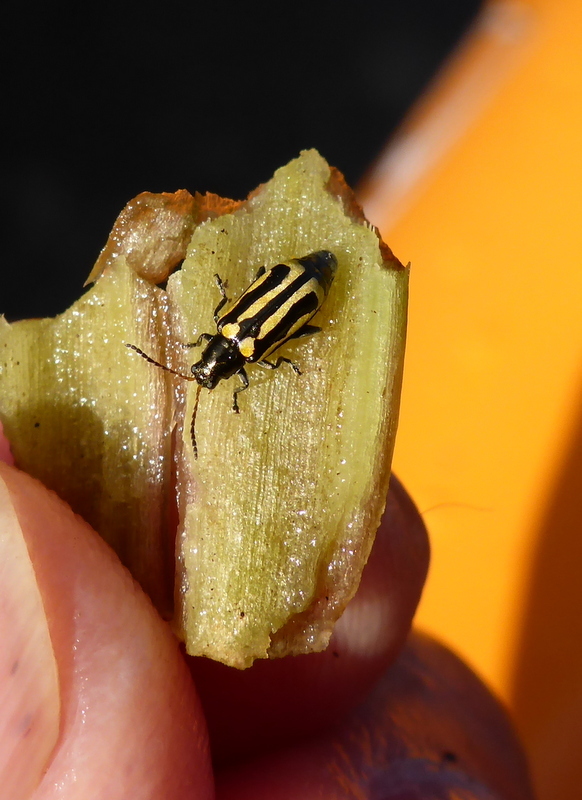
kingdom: Animalia
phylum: Arthropoda
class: Insecta
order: Coleoptera
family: Chrysomelidae
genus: Agasicles
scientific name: Agasicles hygrophila
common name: Alligatorweed flea beetle
